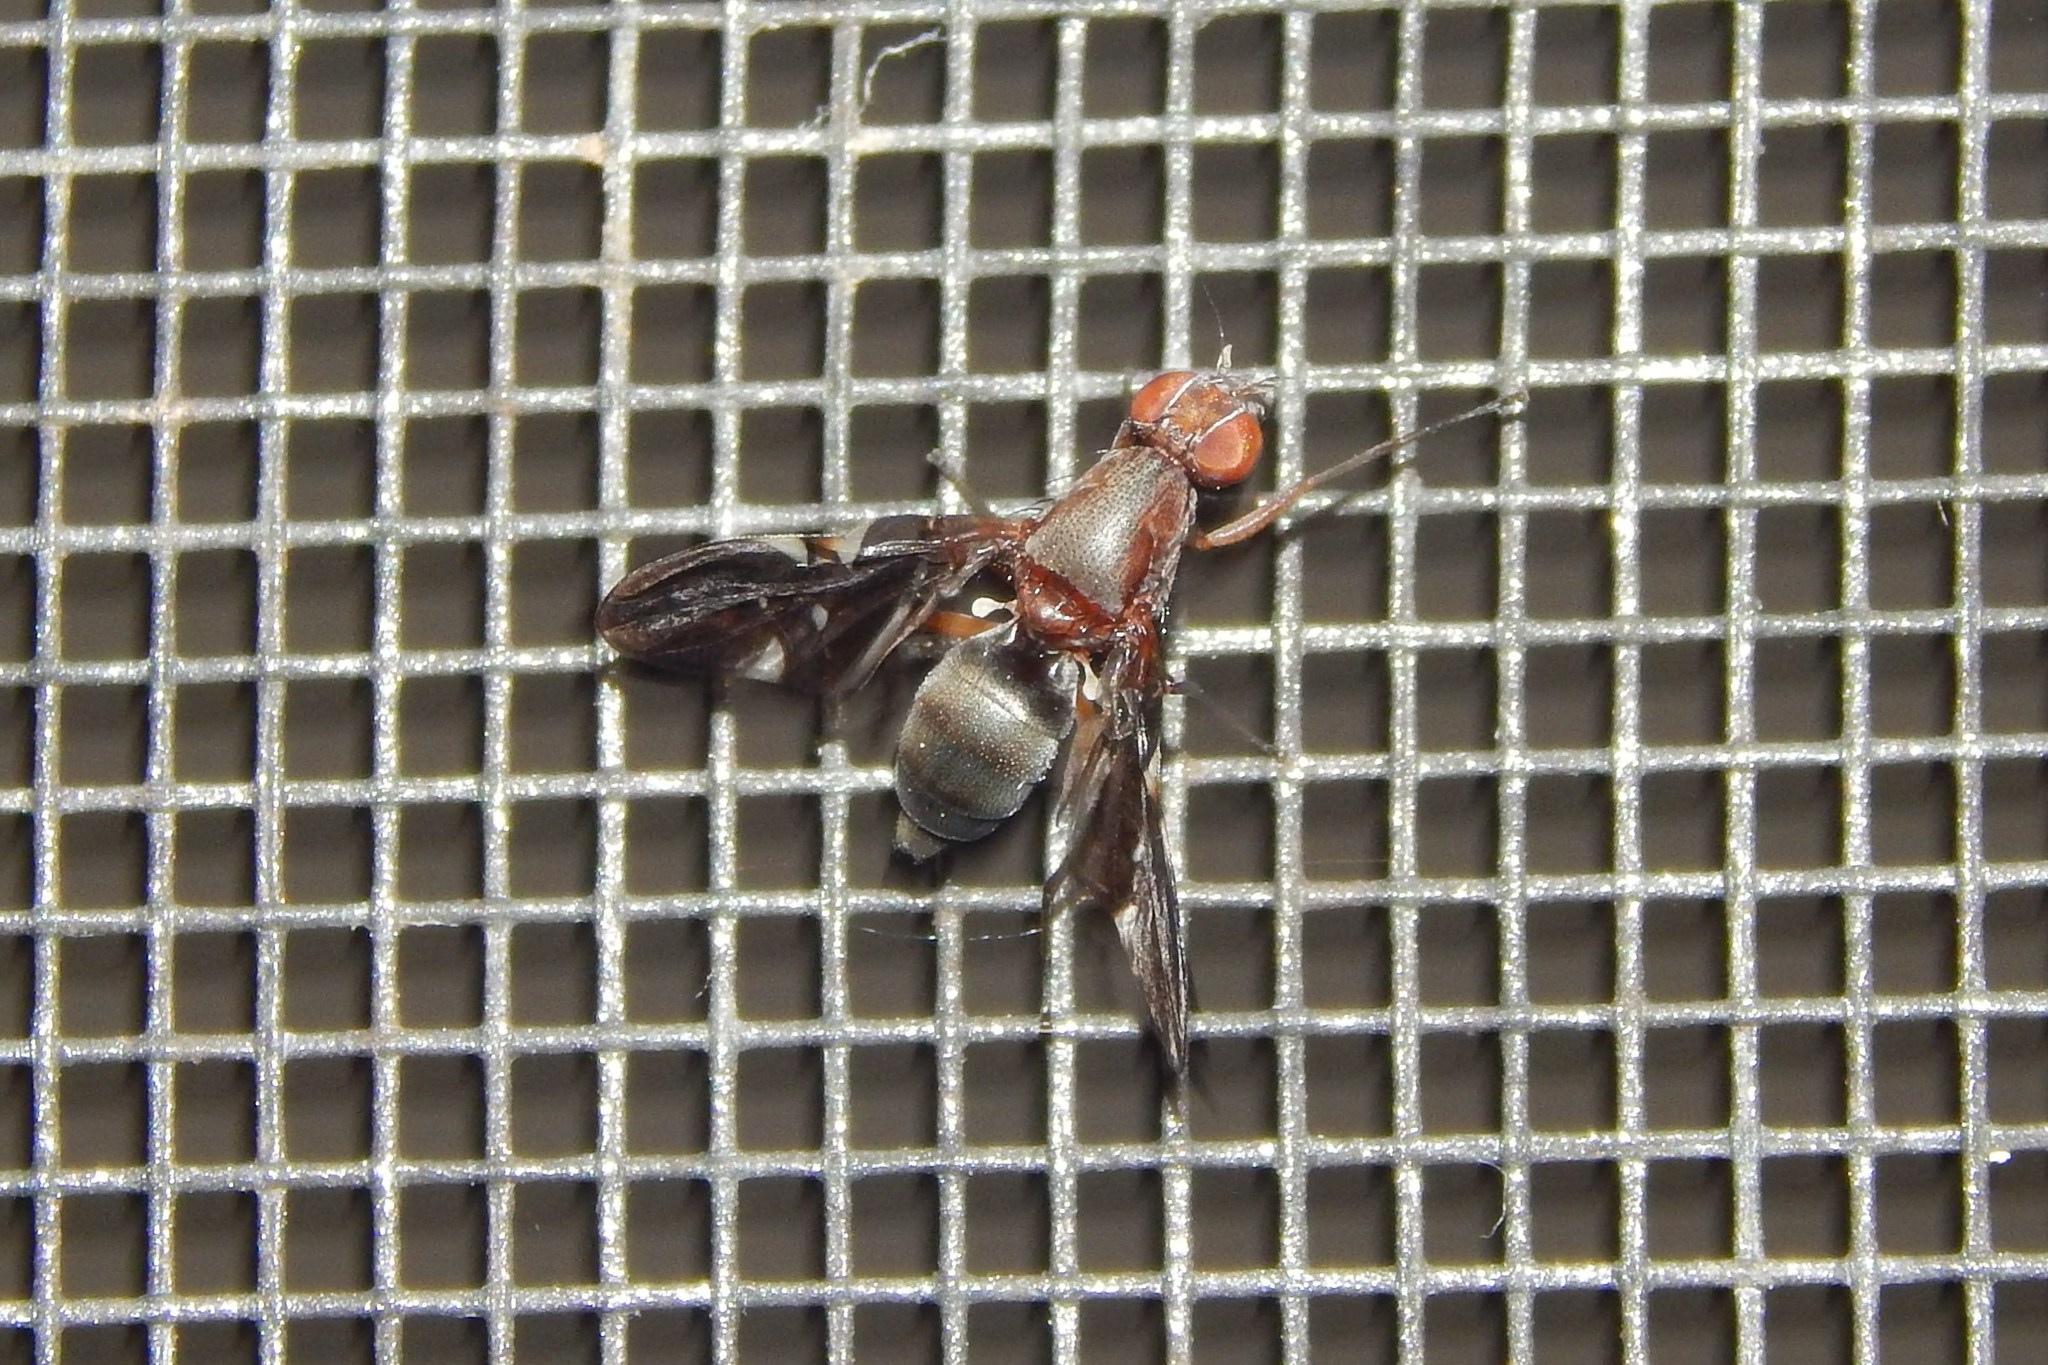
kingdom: Animalia
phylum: Arthropoda
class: Insecta
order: Diptera
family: Ulidiidae
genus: Delphinia
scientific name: Delphinia picta
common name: Common picture-winged fly
